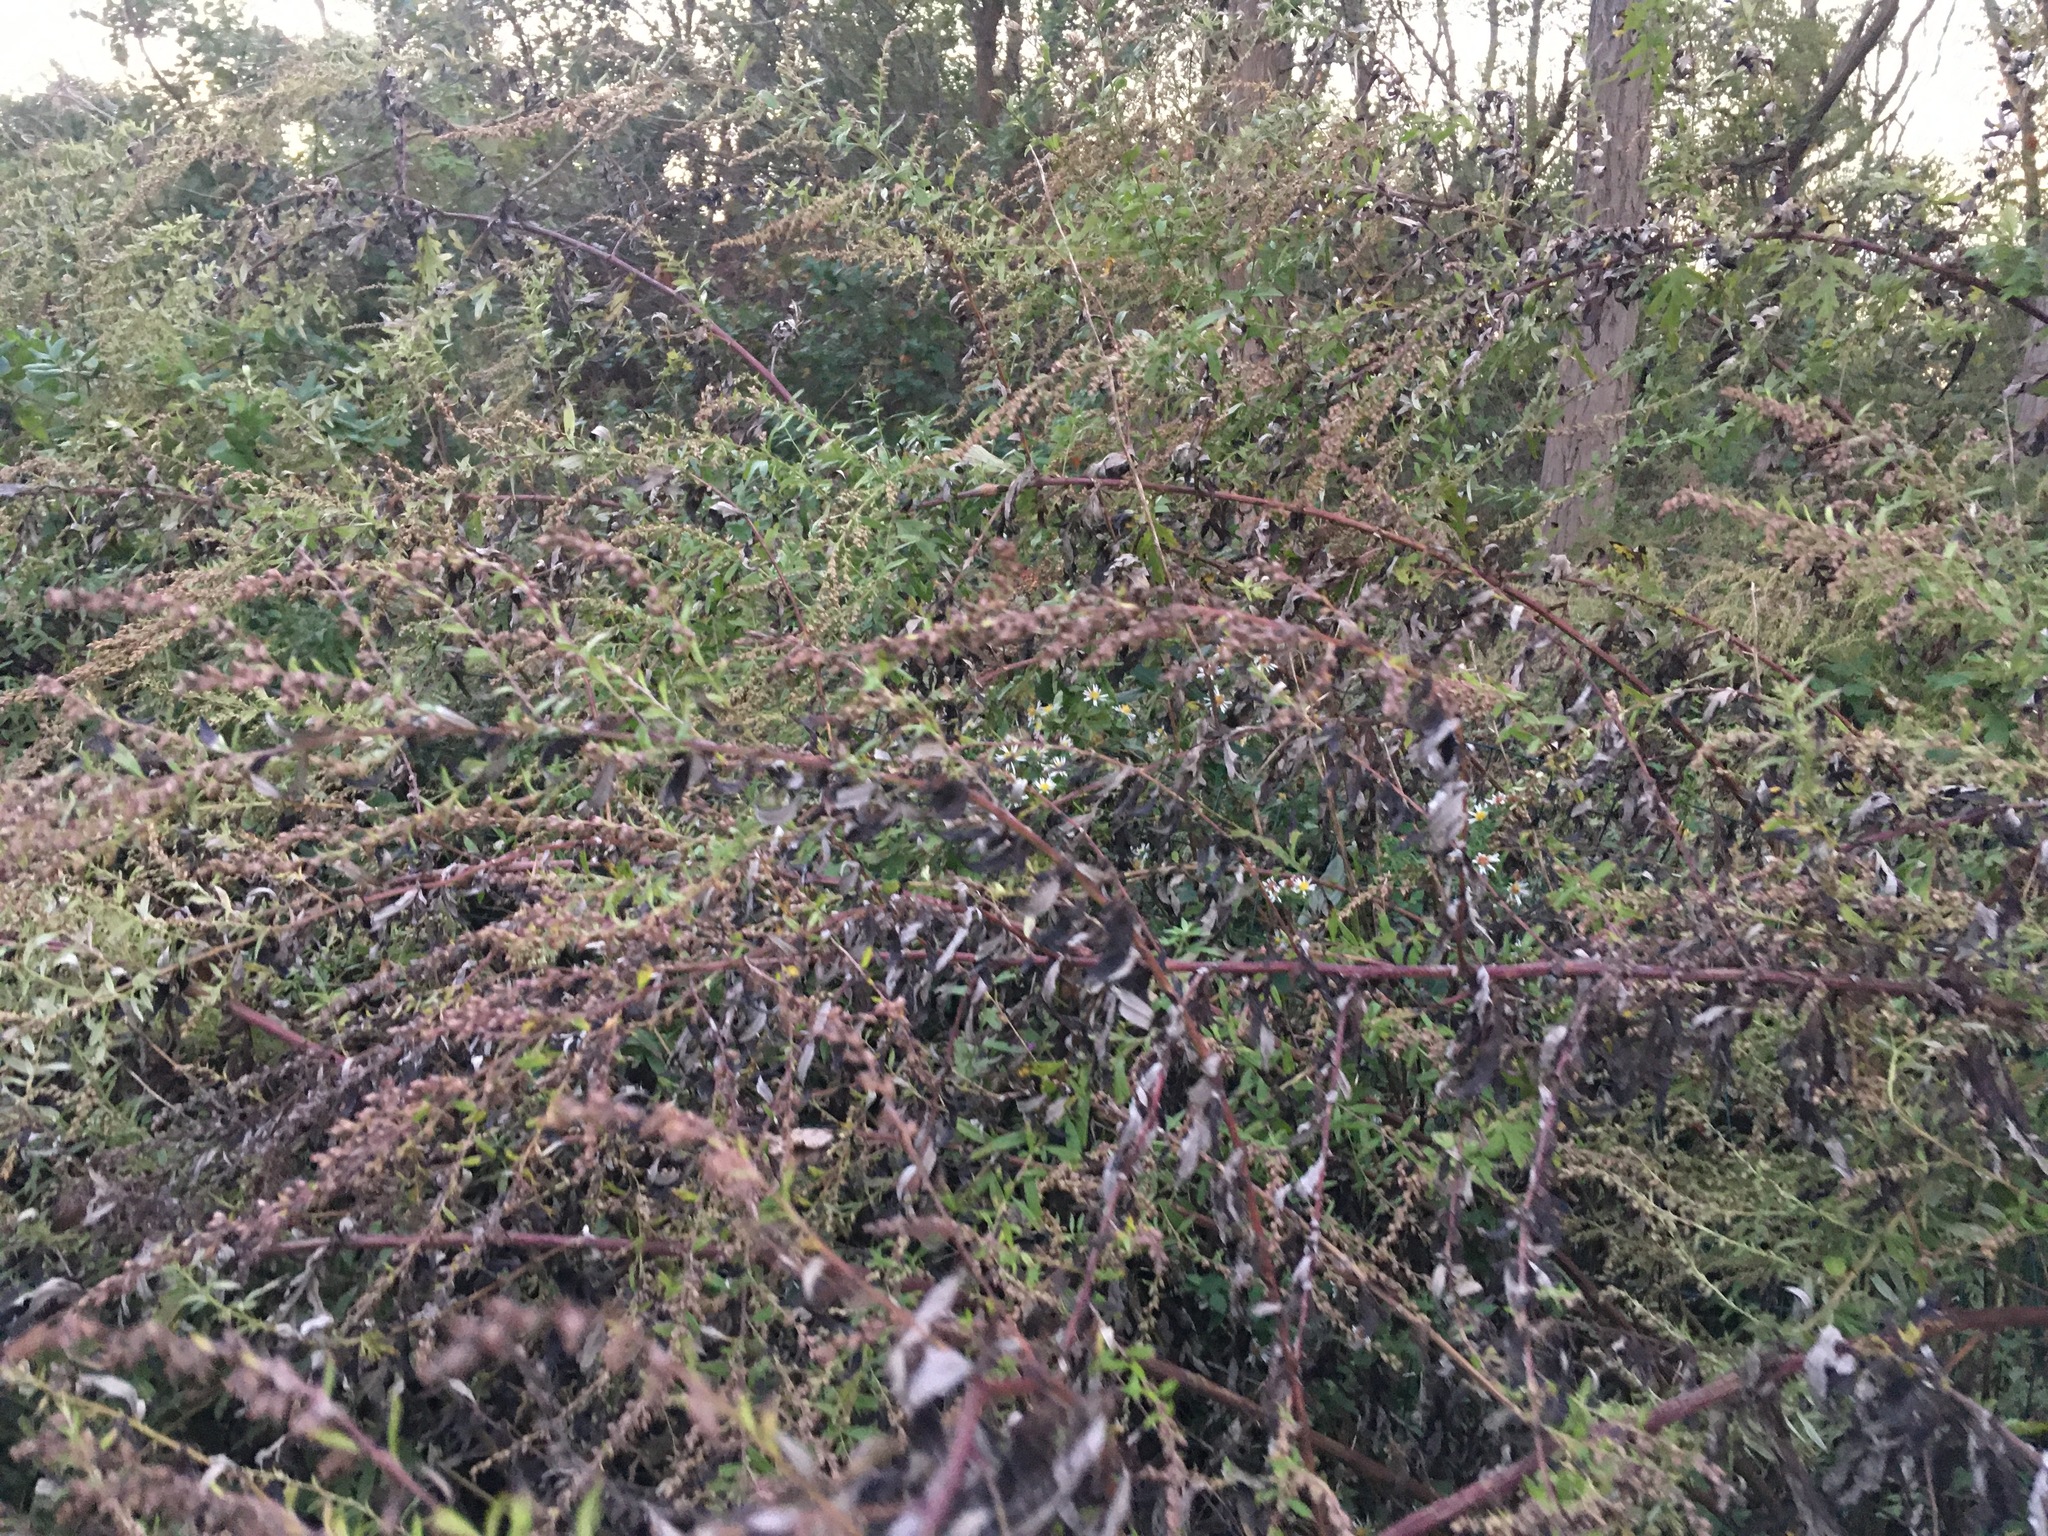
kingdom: Plantae
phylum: Tracheophyta
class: Magnoliopsida
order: Asterales
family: Asteraceae
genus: Artemisia
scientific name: Artemisia vulgaris
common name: Mugwort
